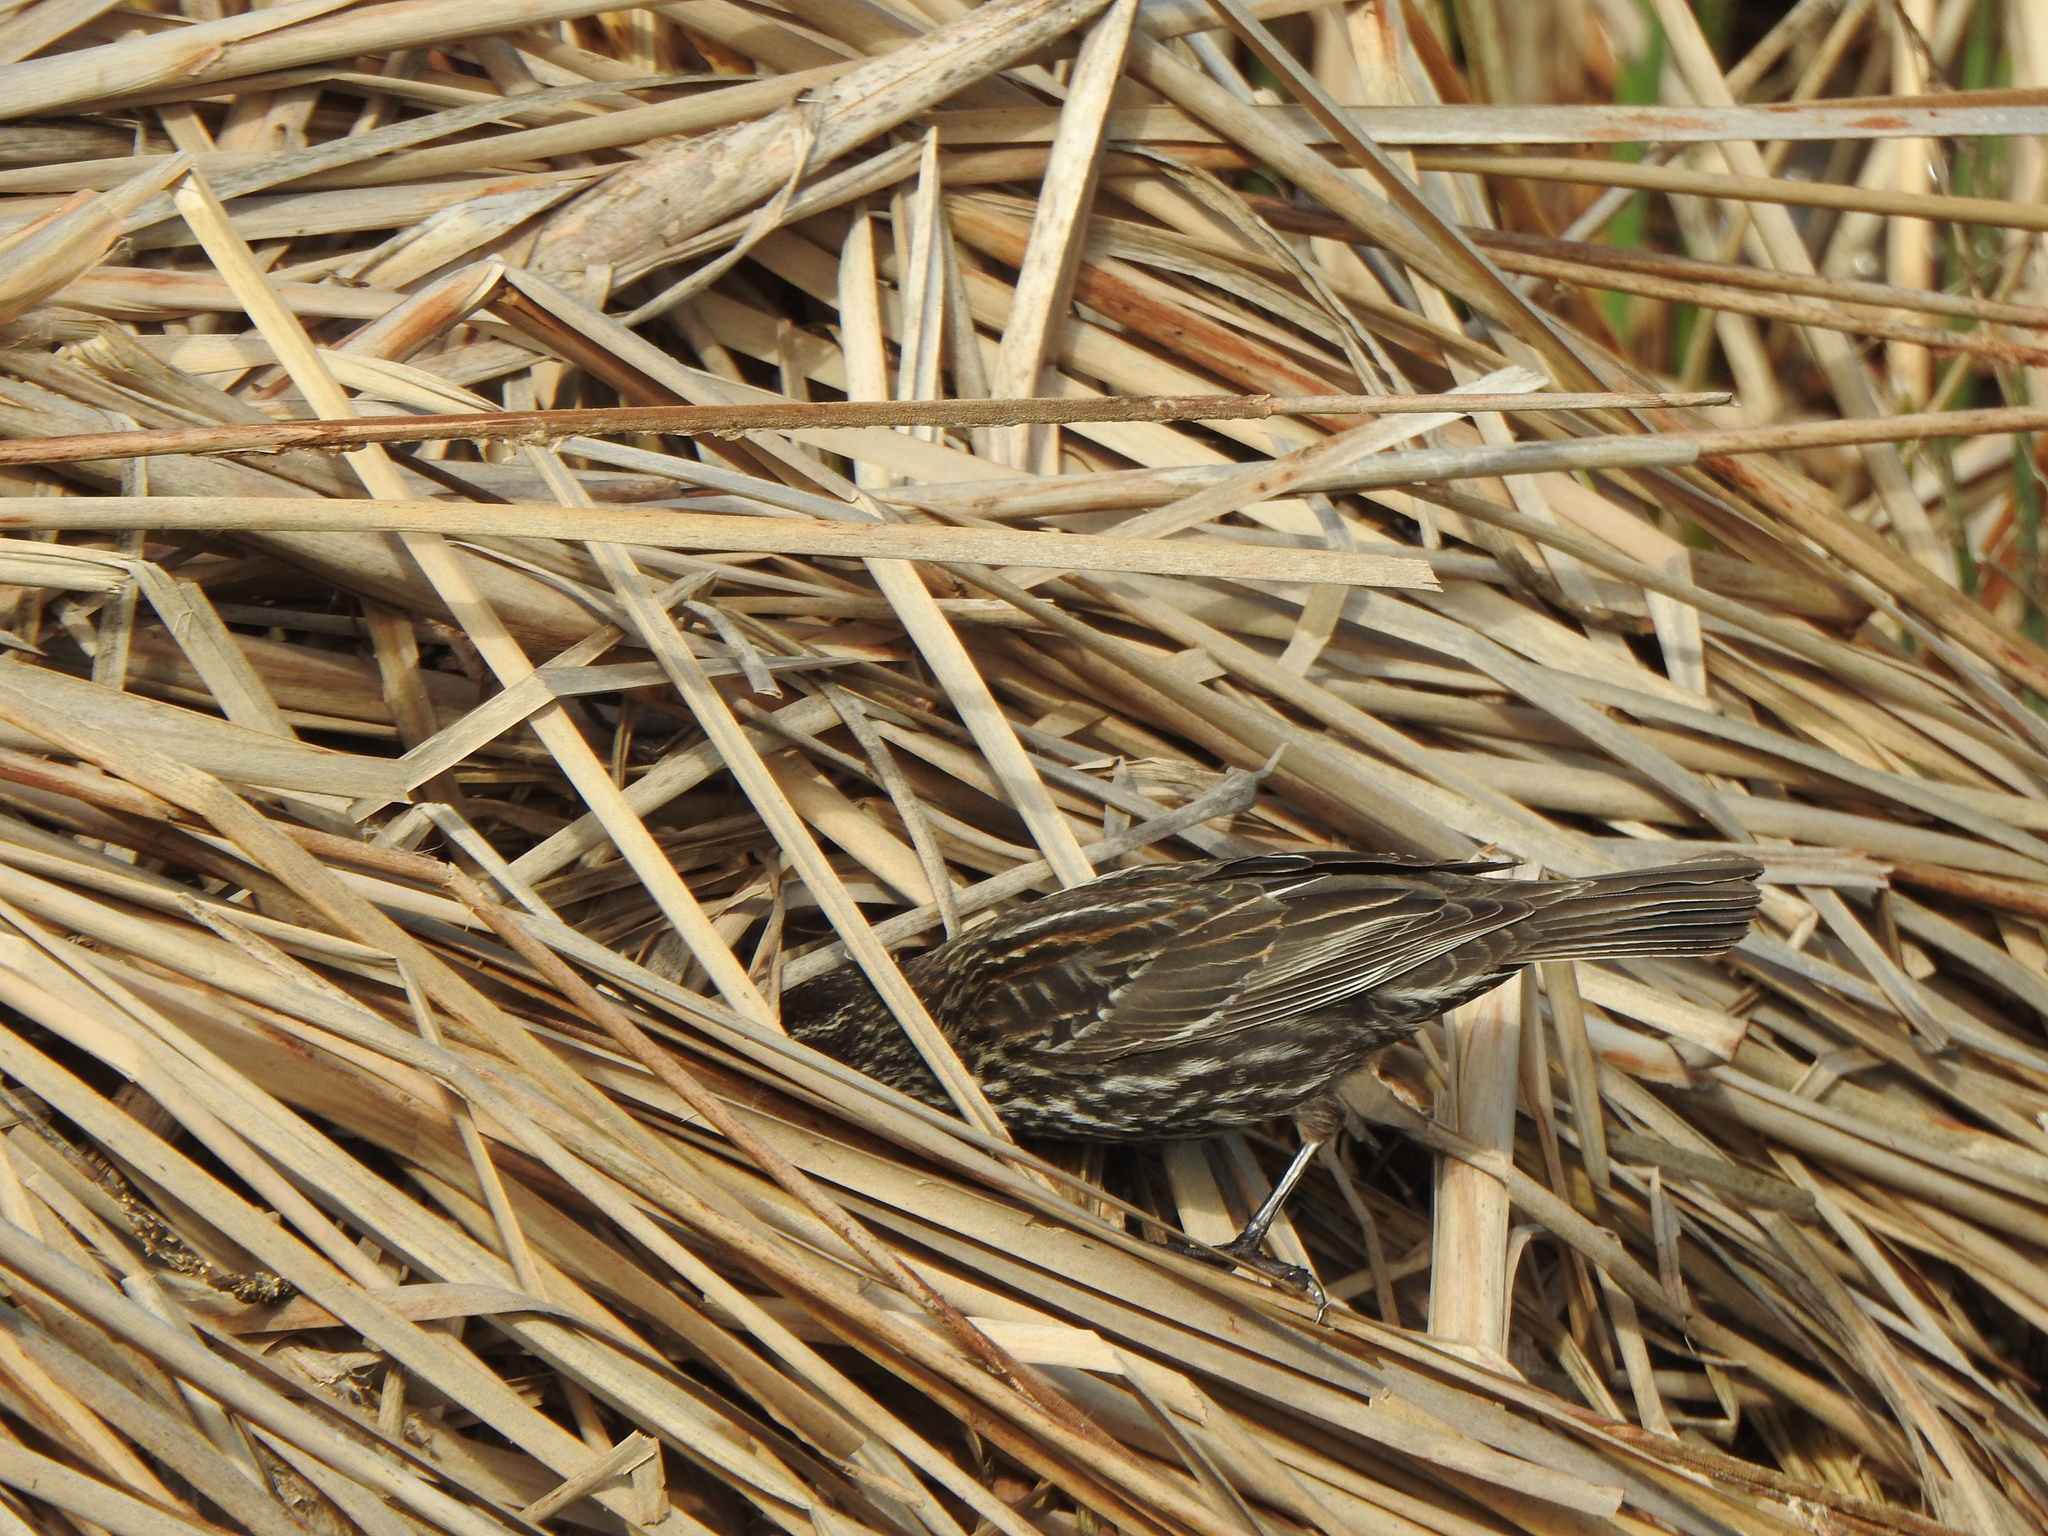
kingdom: Animalia
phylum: Chordata
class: Aves
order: Passeriformes
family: Icteridae
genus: Agelaius
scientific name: Agelaius phoeniceus
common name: Red-winged blackbird
